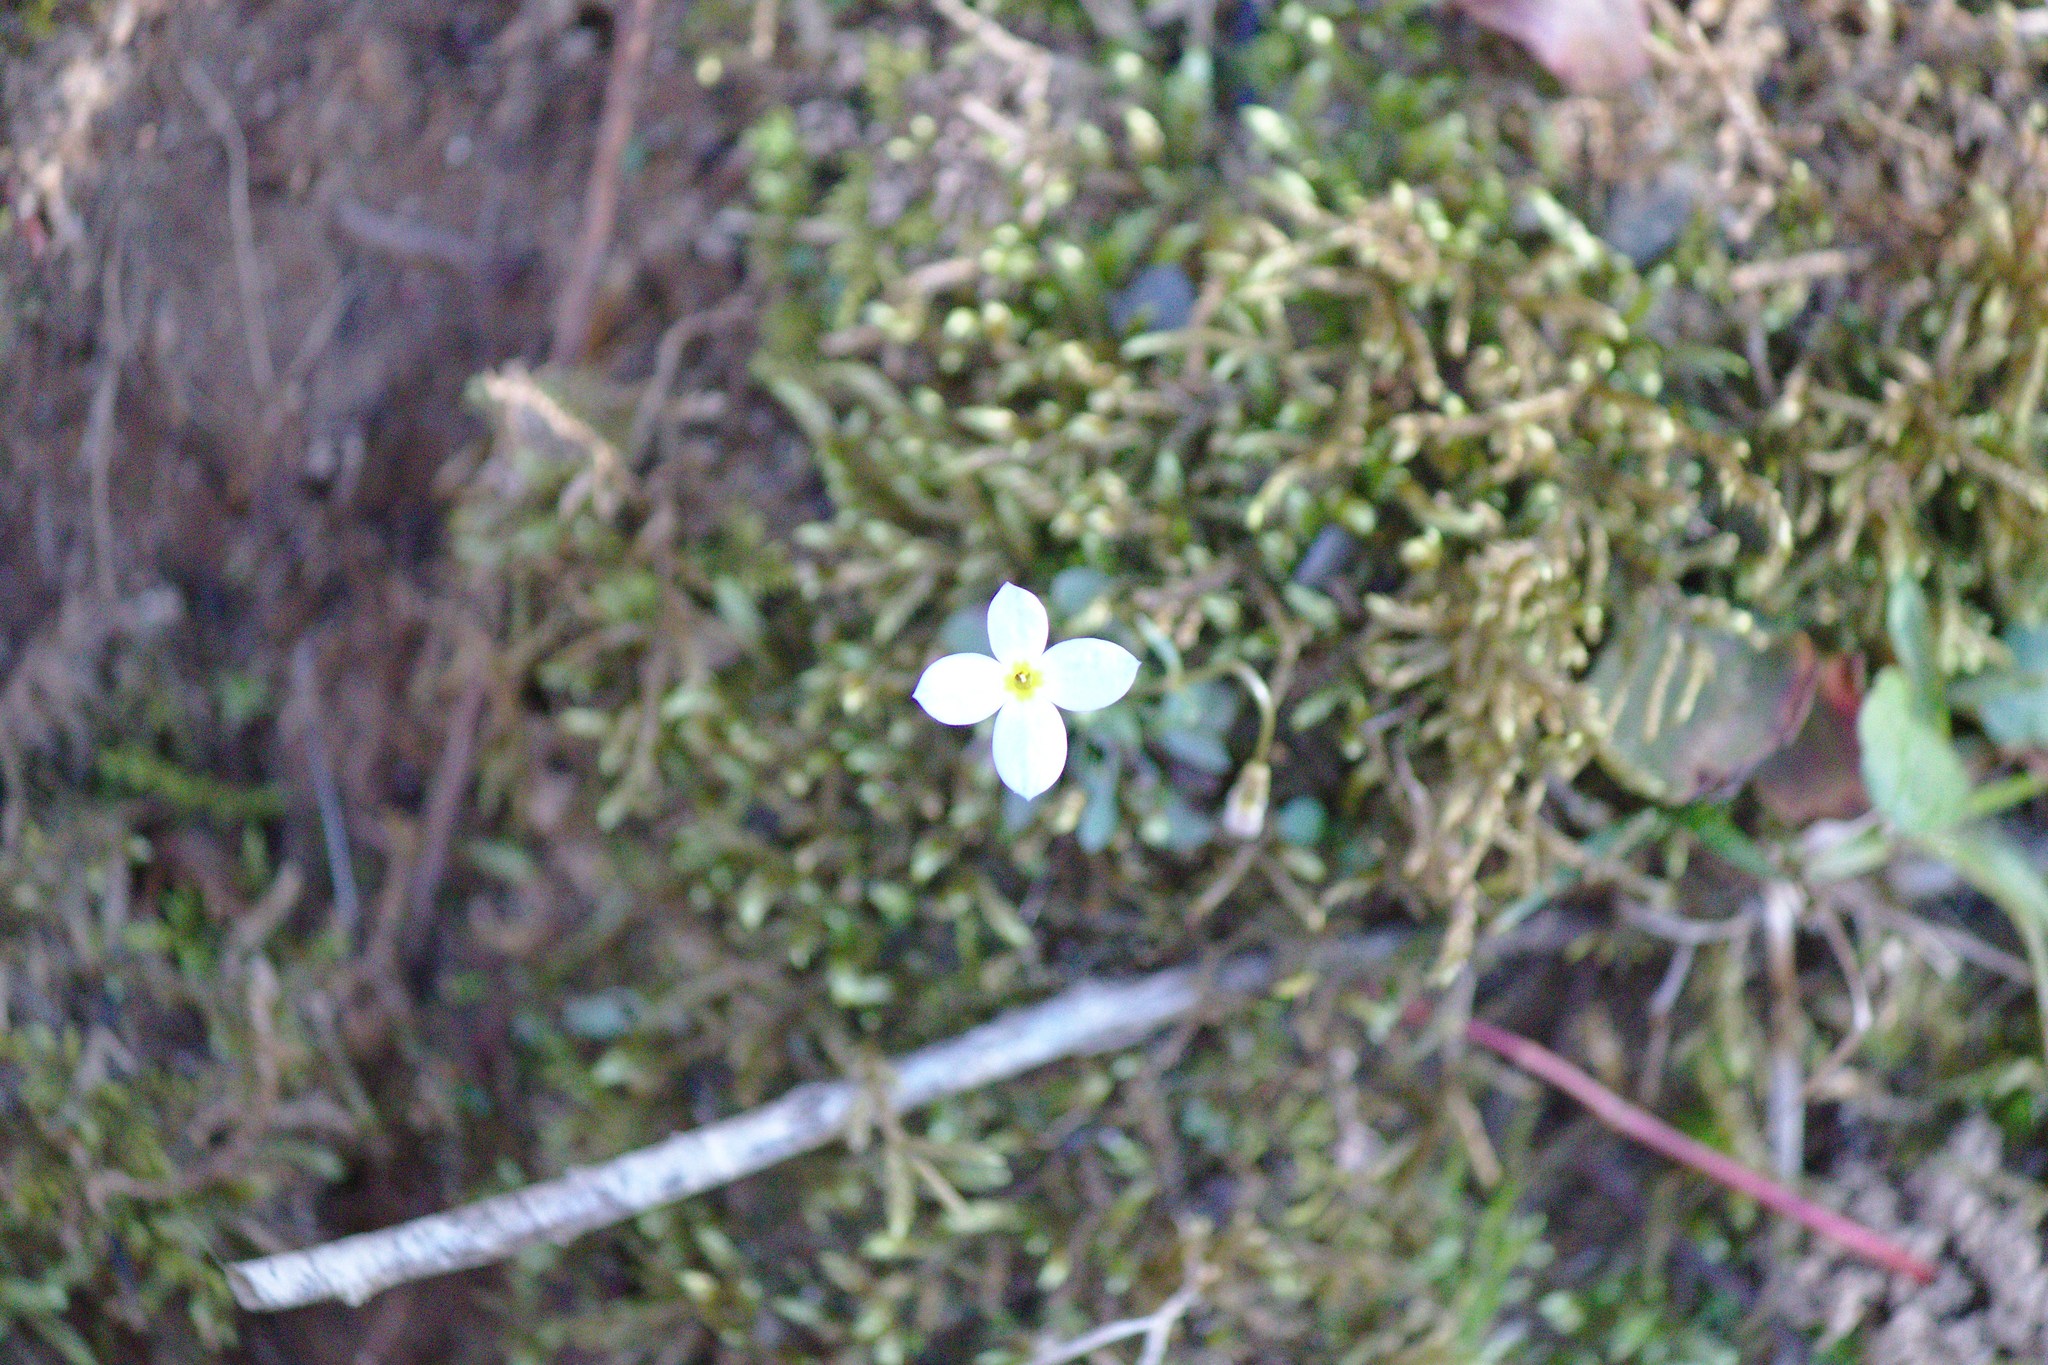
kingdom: Plantae
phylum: Tracheophyta
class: Magnoliopsida
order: Gentianales
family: Rubiaceae
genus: Houstonia
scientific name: Houstonia caerulea
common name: Bluets
